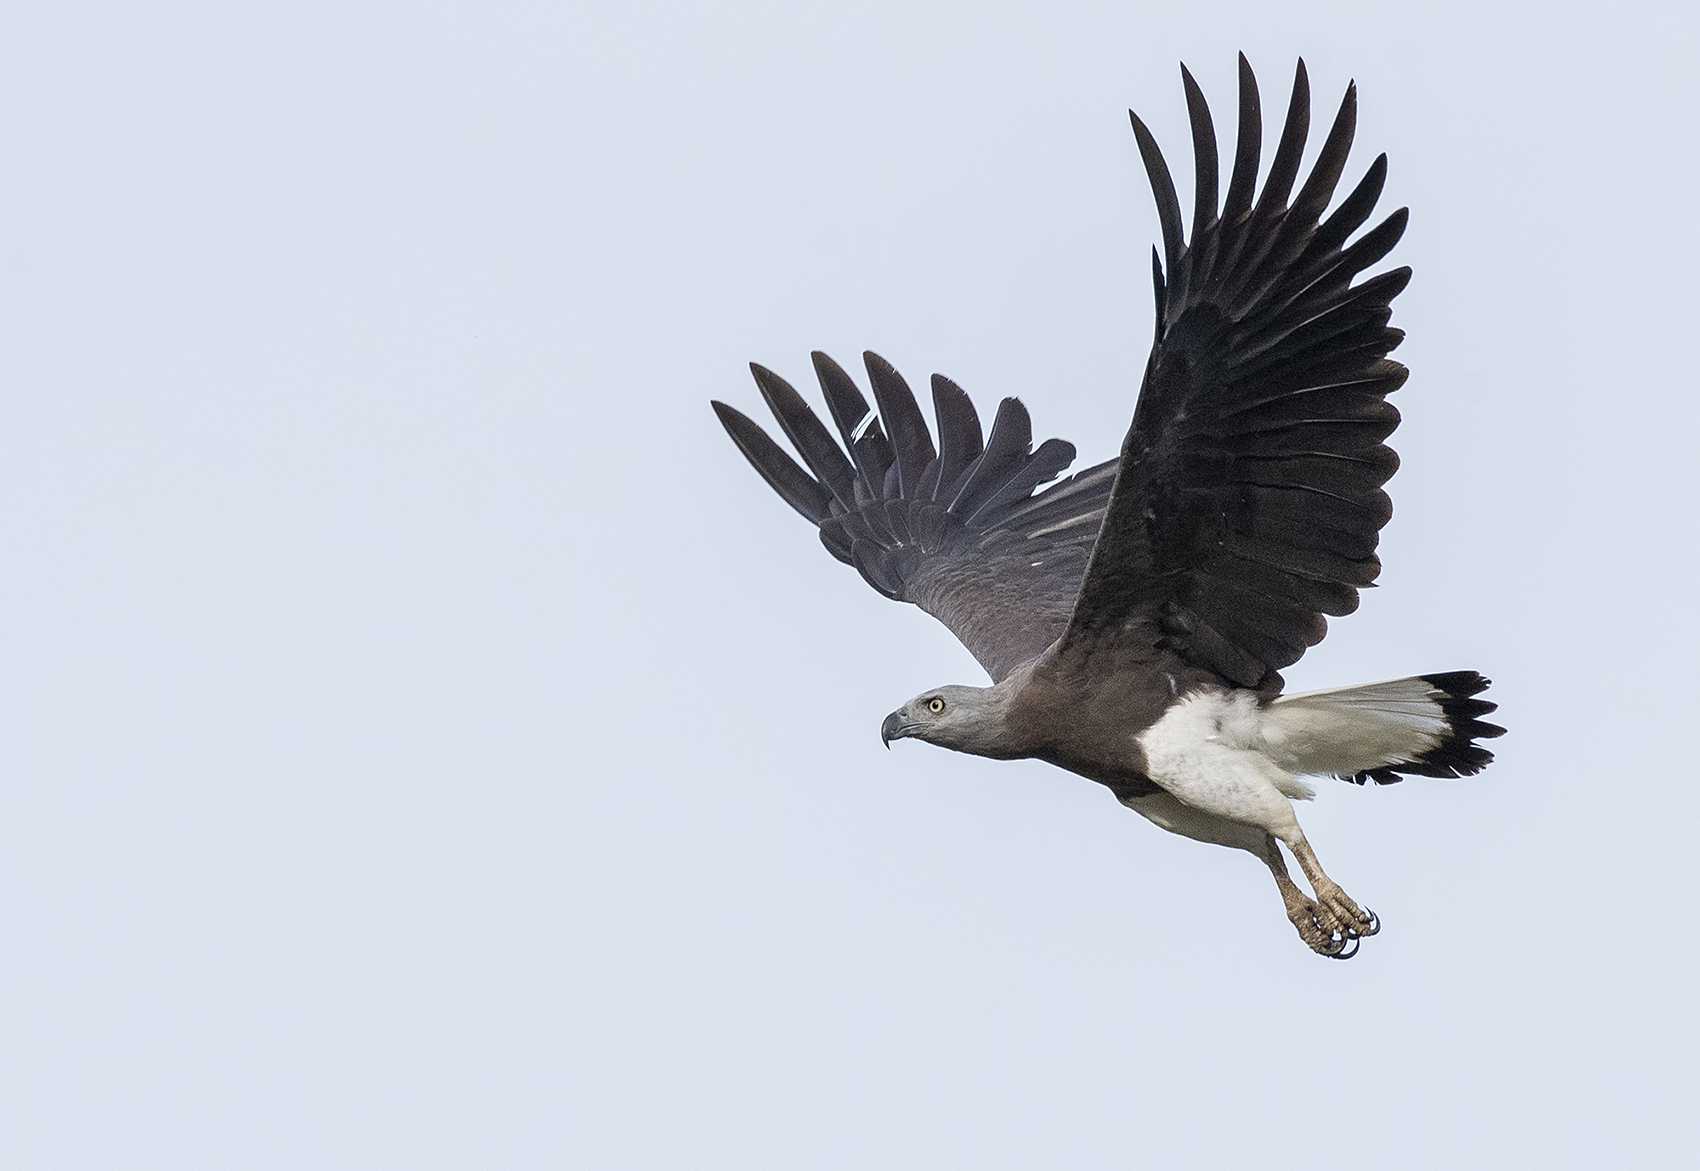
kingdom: Animalia
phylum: Chordata
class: Aves
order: Accipitriformes
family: Accipitridae
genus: Icthyophaga
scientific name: Icthyophaga ichthyaetus
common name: Grey-headed fish eagle
